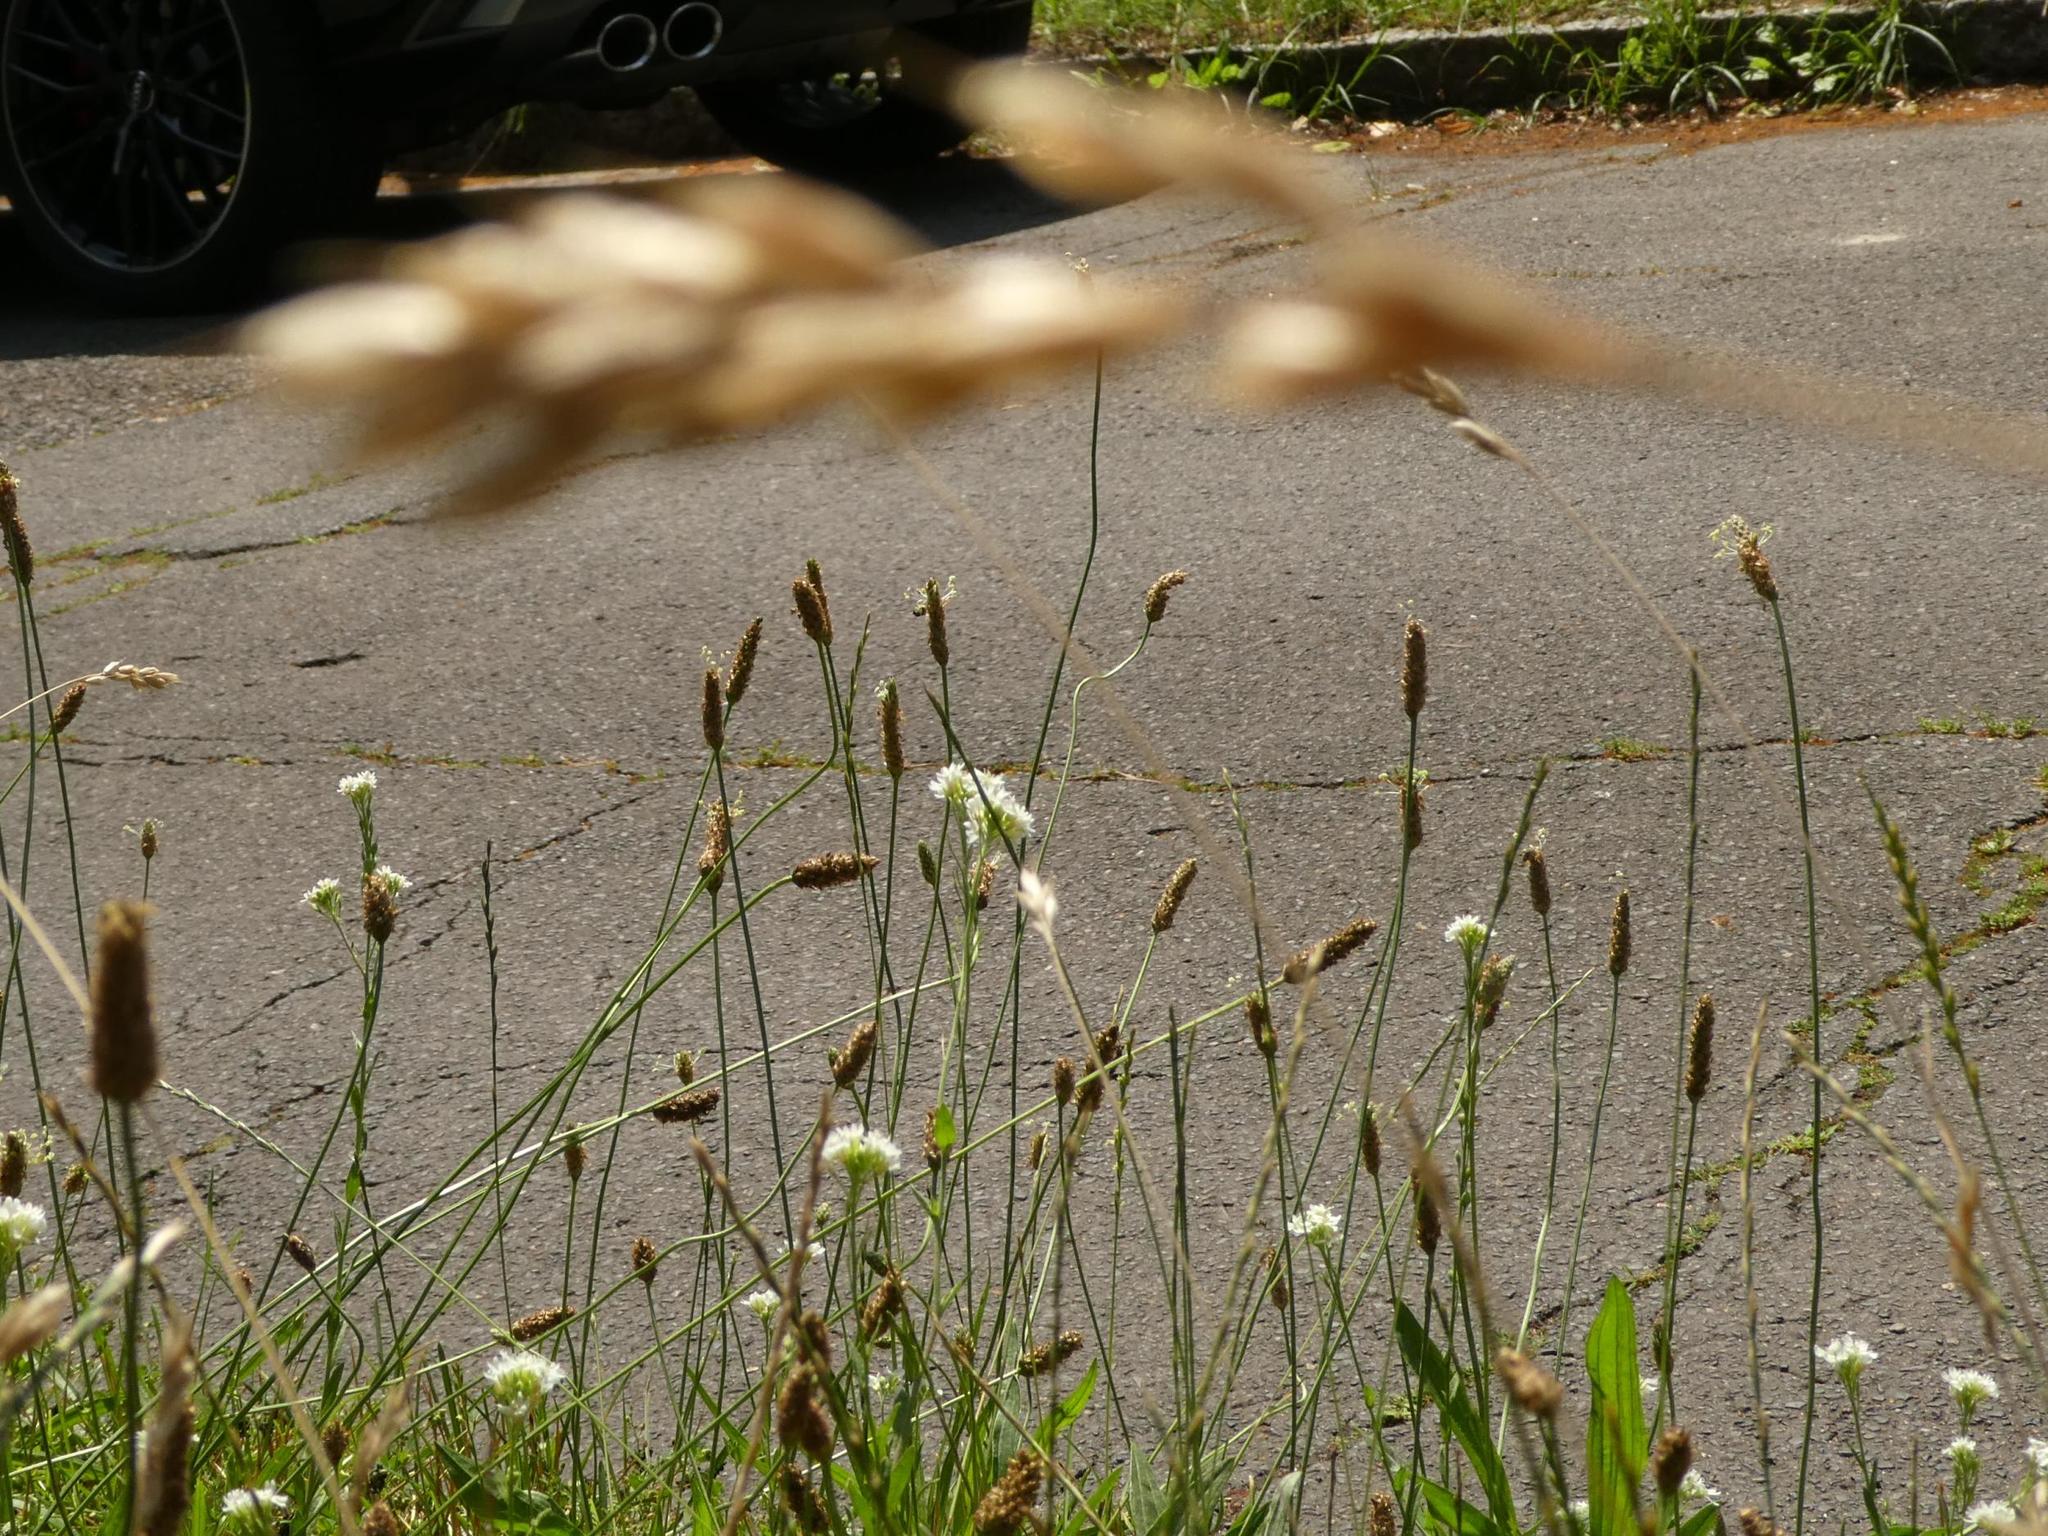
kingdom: Plantae
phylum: Tracheophyta
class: Magnoliopsida
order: Lamiales
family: Plantaginaceae
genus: Plantago
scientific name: Plantago lanceolata
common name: Ribwort plantain
